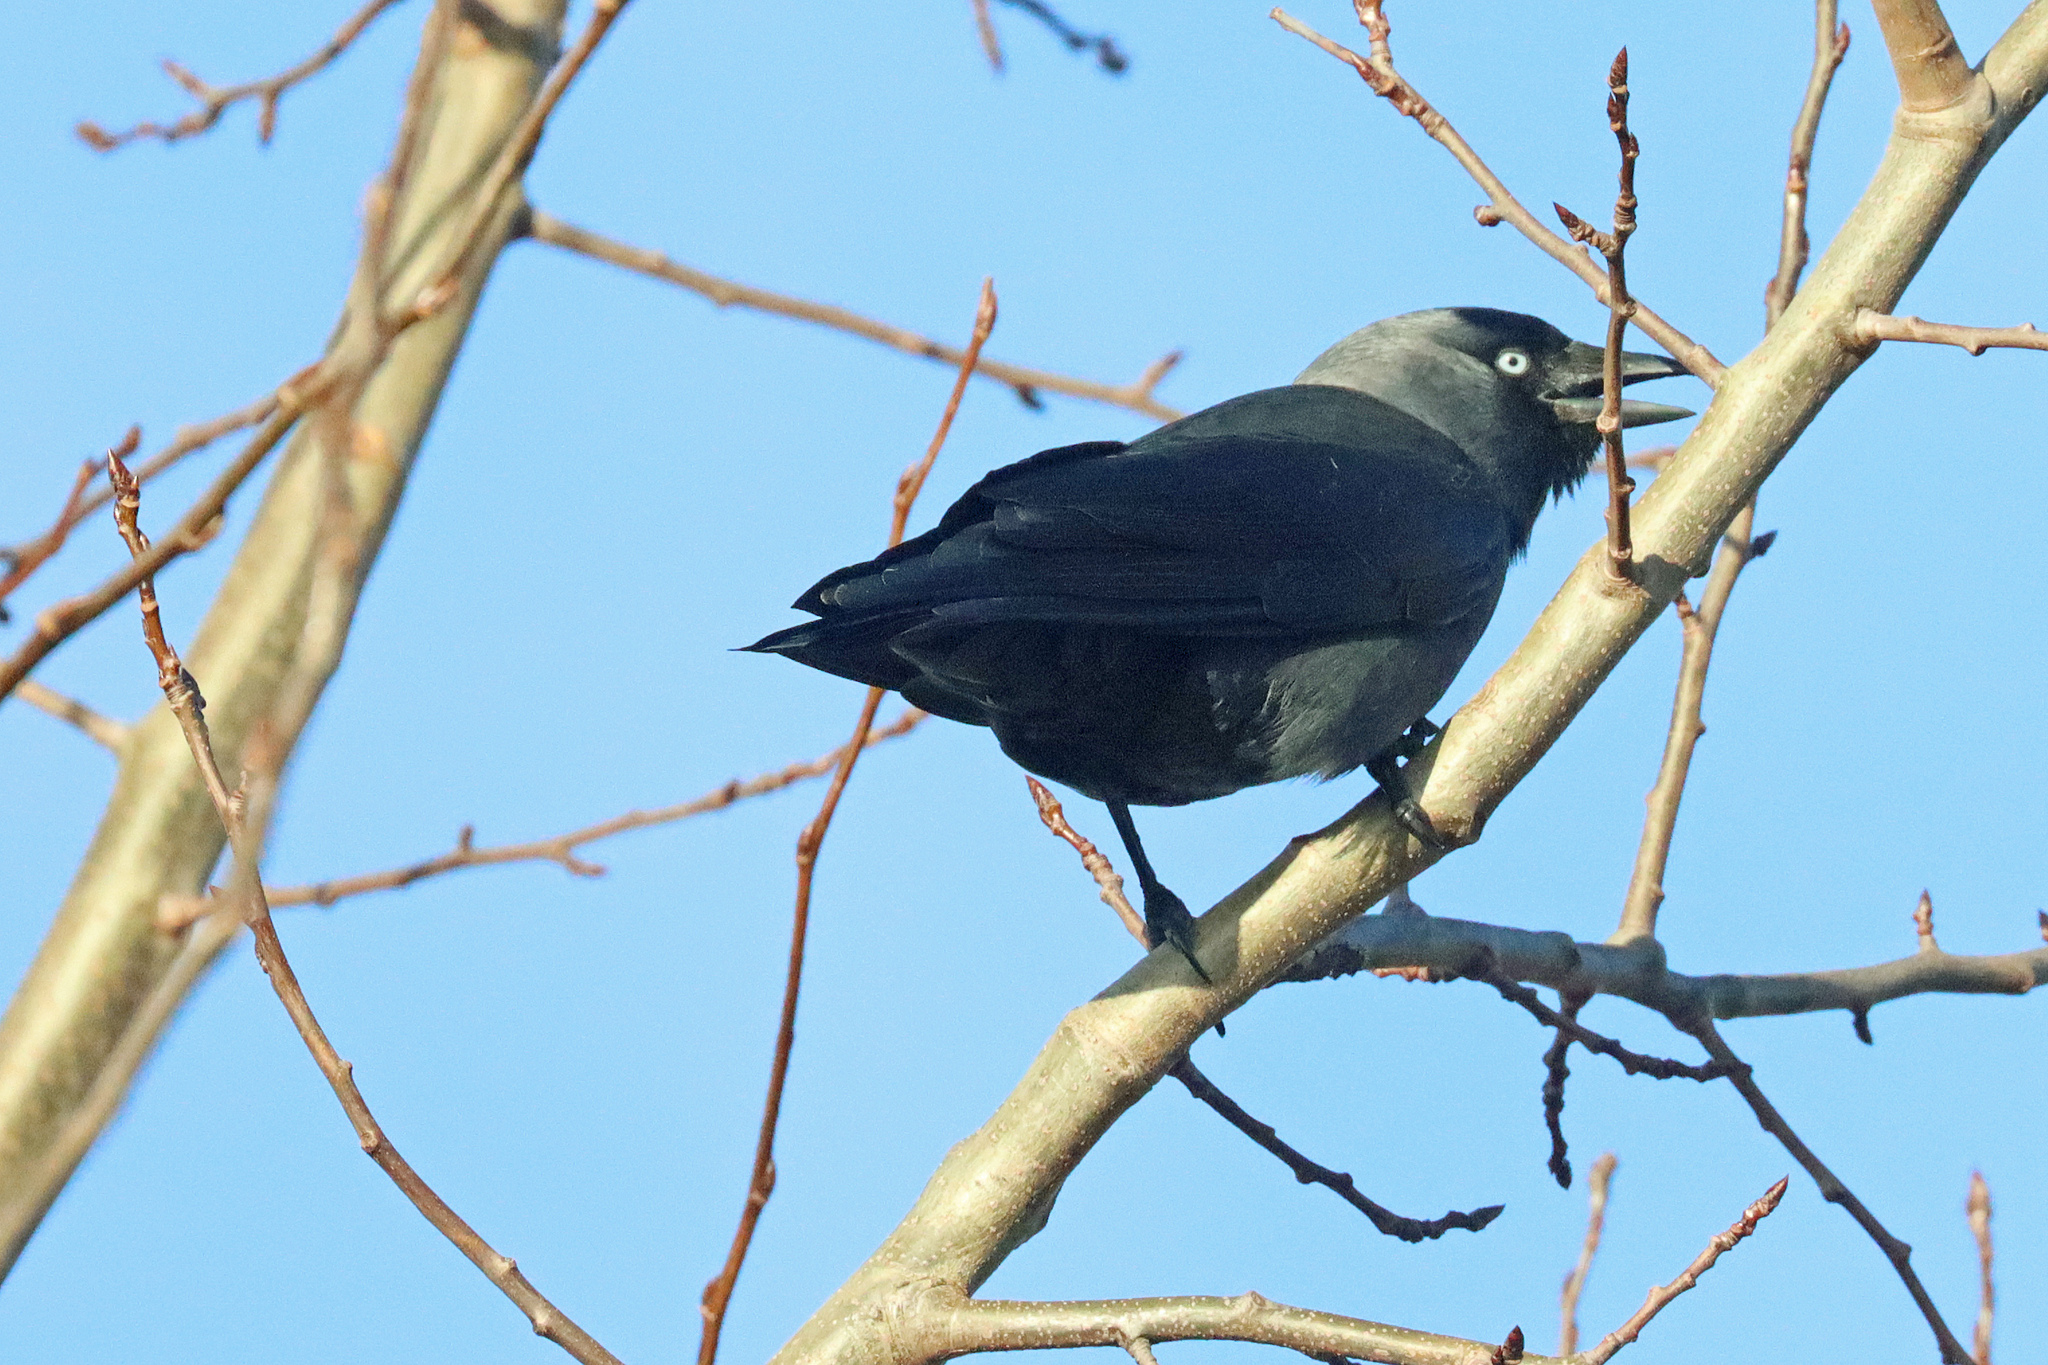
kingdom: Animalia
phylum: Chordata
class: Aves
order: Passeriformes
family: Corvidae
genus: Coloeus
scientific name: Coloeus monedula
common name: Western jackdaw
